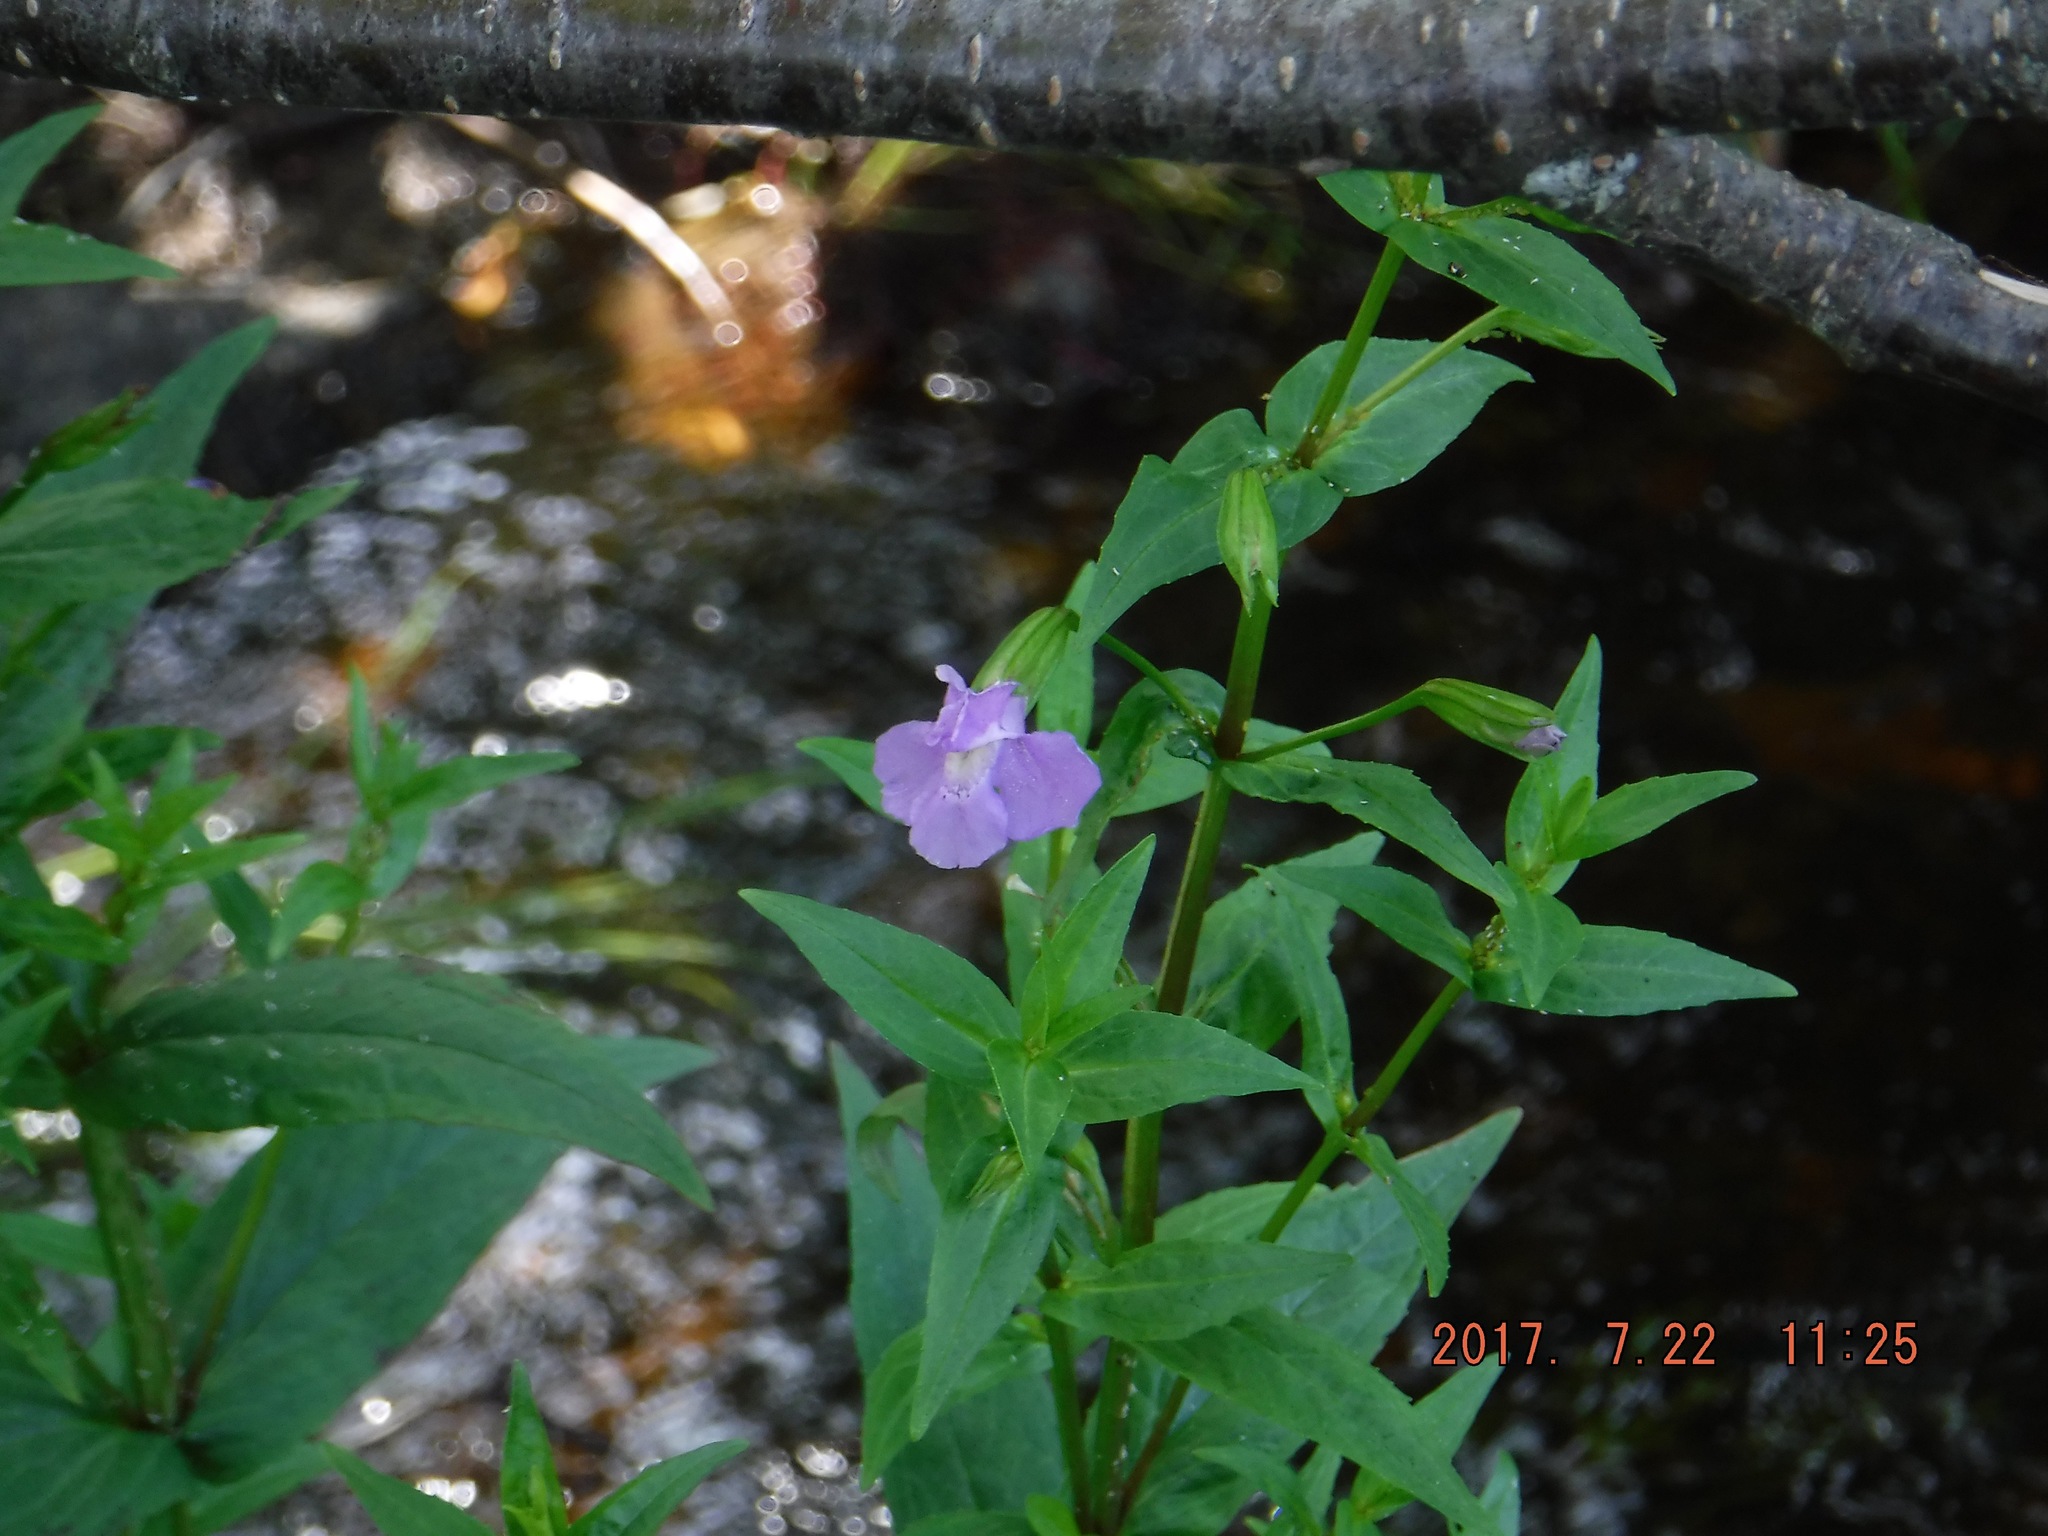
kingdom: Plantae
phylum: Tracheophyta
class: Magnoliopsida
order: Lamiales
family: Phrymaceae
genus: Mimulus
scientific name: Mimulus ringens
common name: Allegheny monkeyflower
